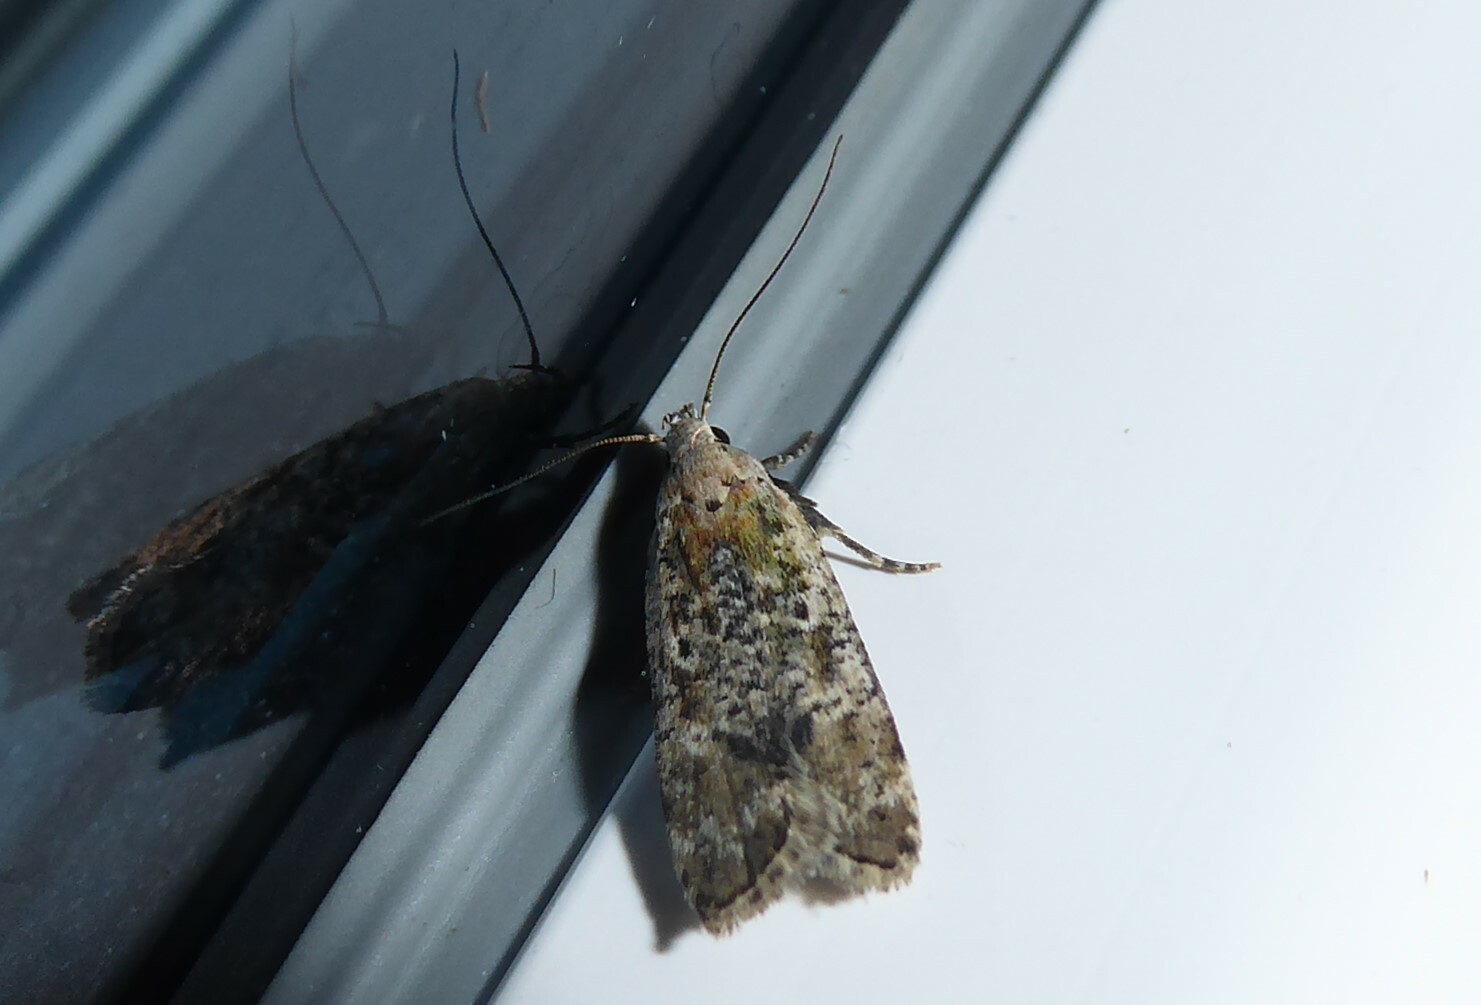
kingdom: Animalia
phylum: Arthropoda
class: Insecta
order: Lepidoptera
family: Gelechiidae
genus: Anisoplaca
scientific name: Anisoplaca achyrota
